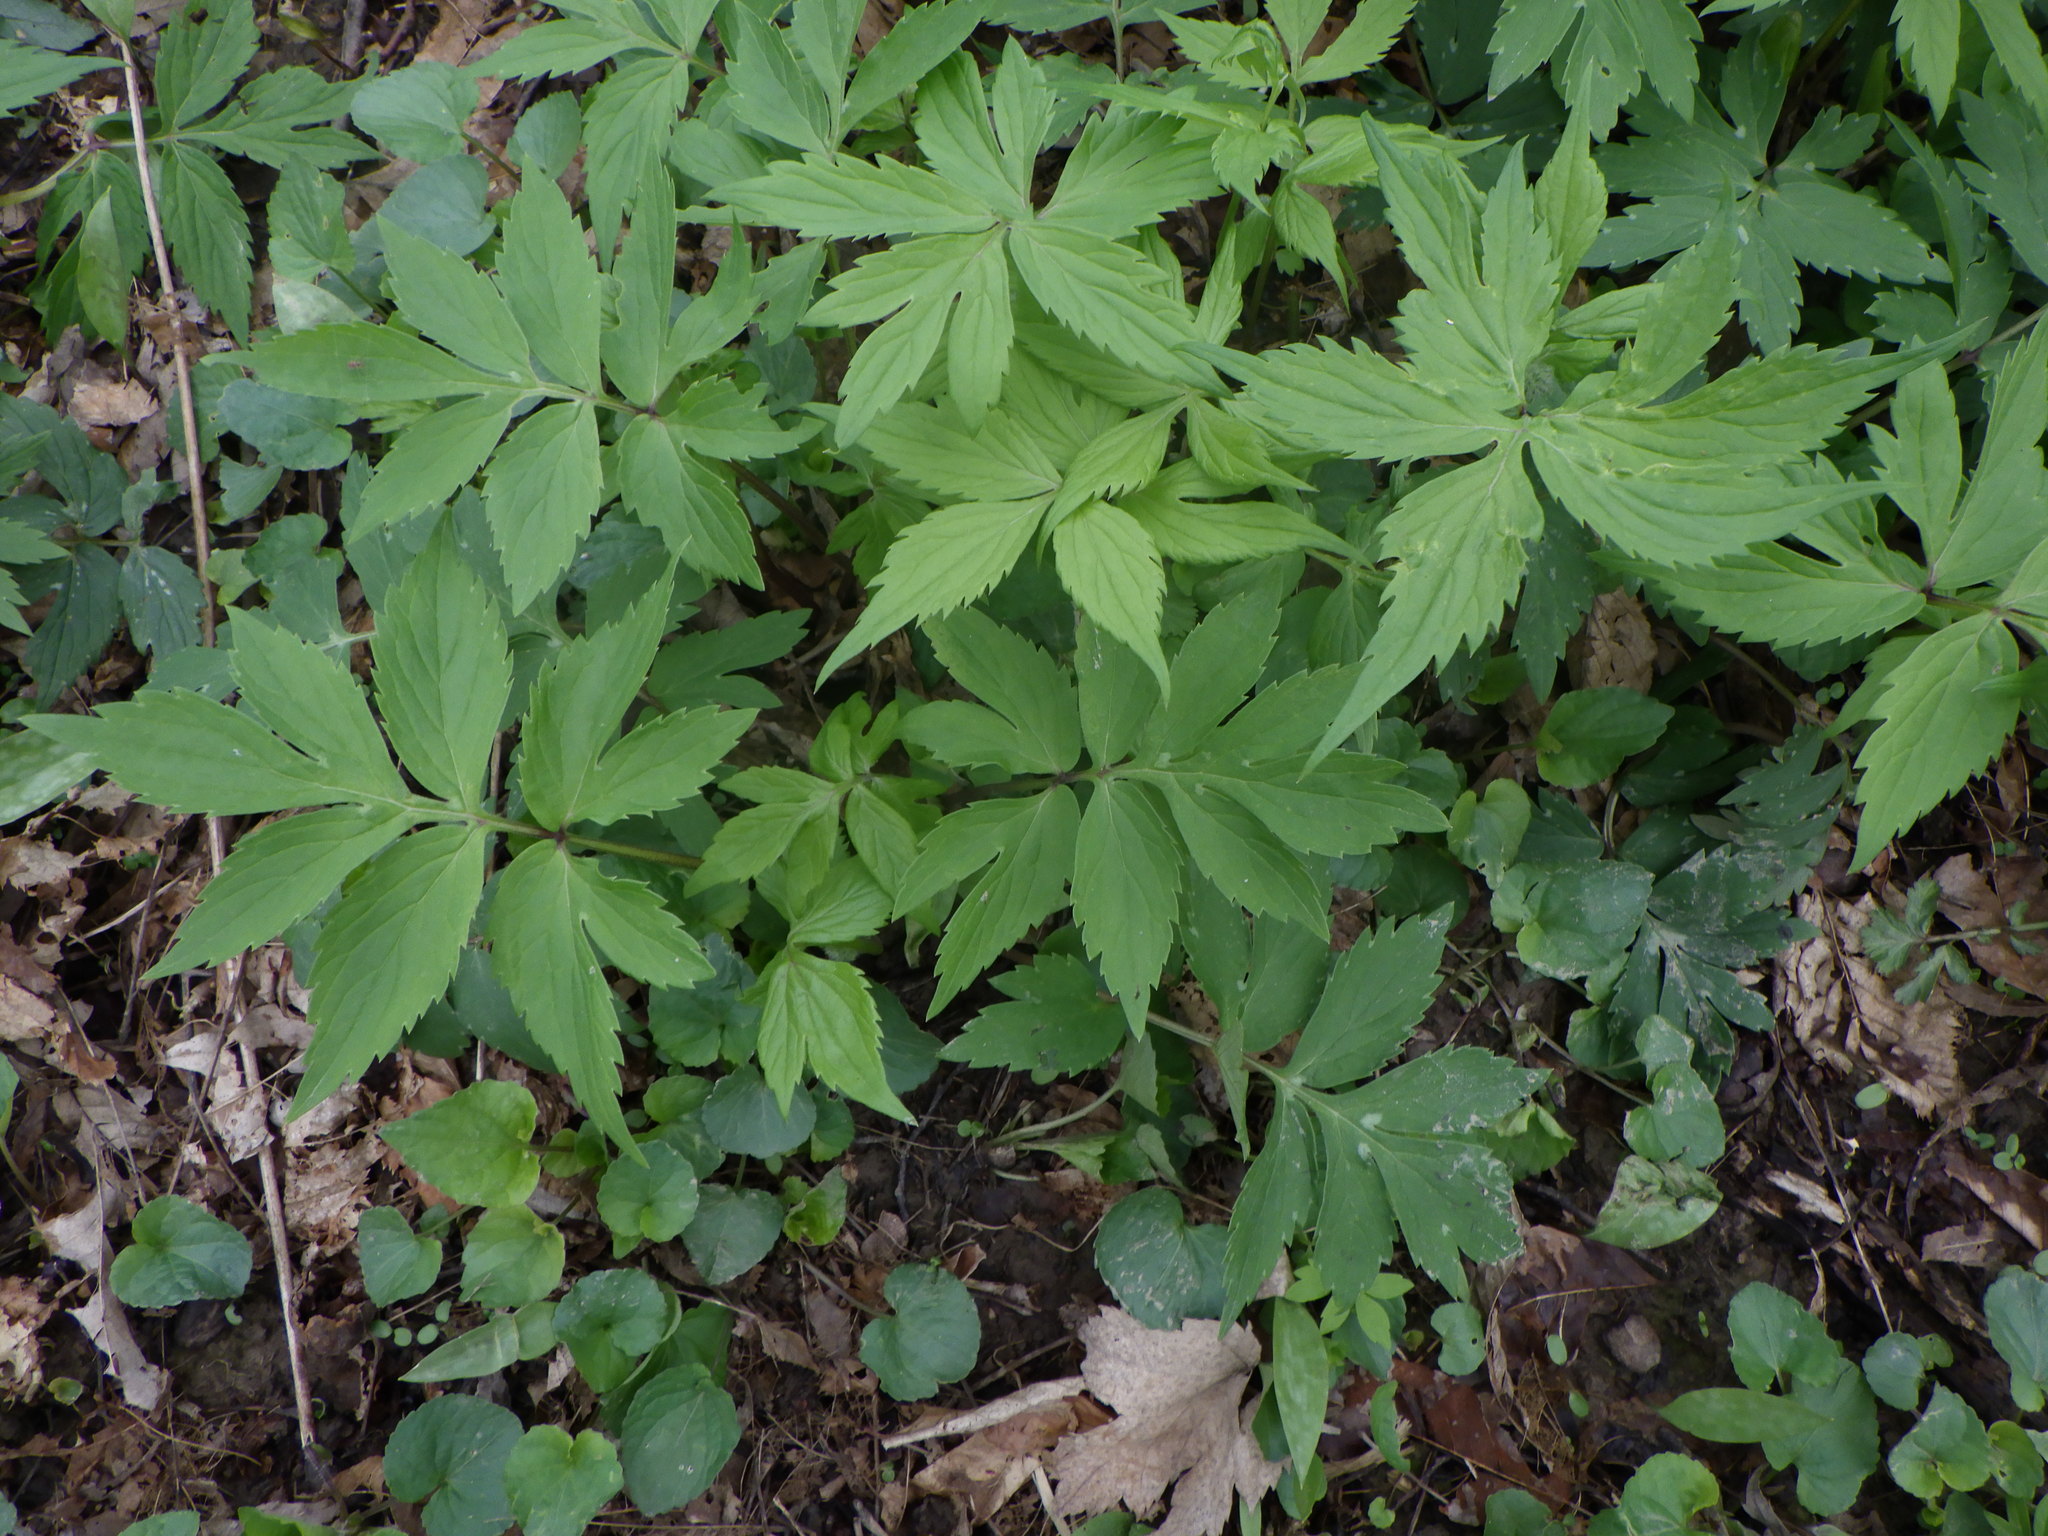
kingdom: Plantae
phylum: Tracheophyta
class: Magnoliopsida
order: Boraginales
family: Hydrophyllaceae
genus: Hydrophyllum
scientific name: Hydrophyllum virginianum
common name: Virginia waterleaf
